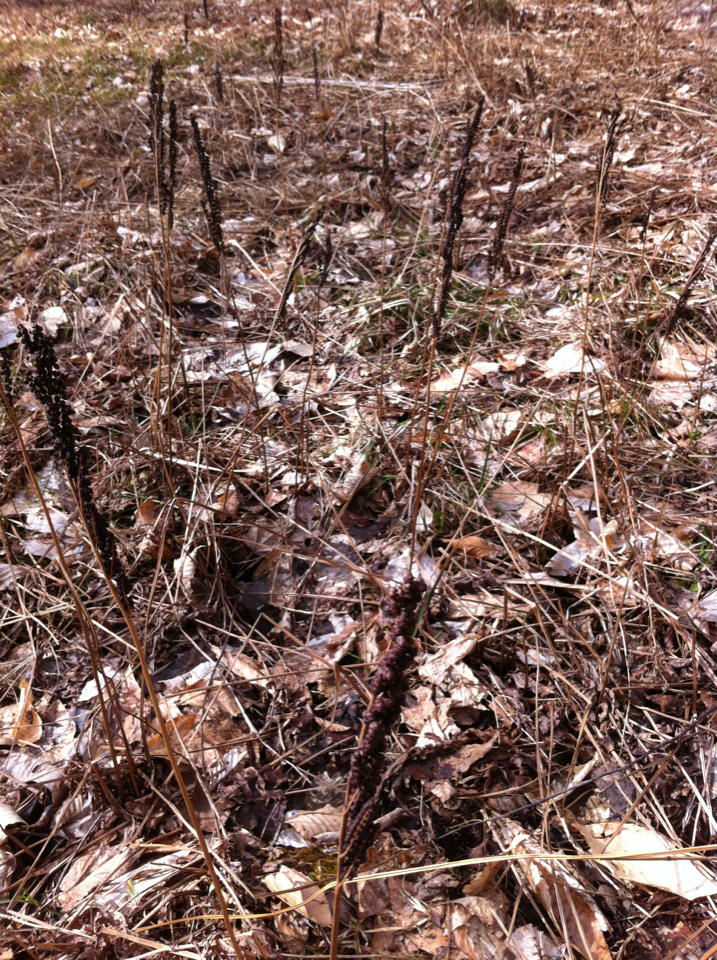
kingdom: Plantae
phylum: Tracheophyta
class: Polypodiopsida
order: Polypodiales
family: Onocleaceae
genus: Onoclea
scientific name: Onoclea sensibilis
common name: Sensitive fern
